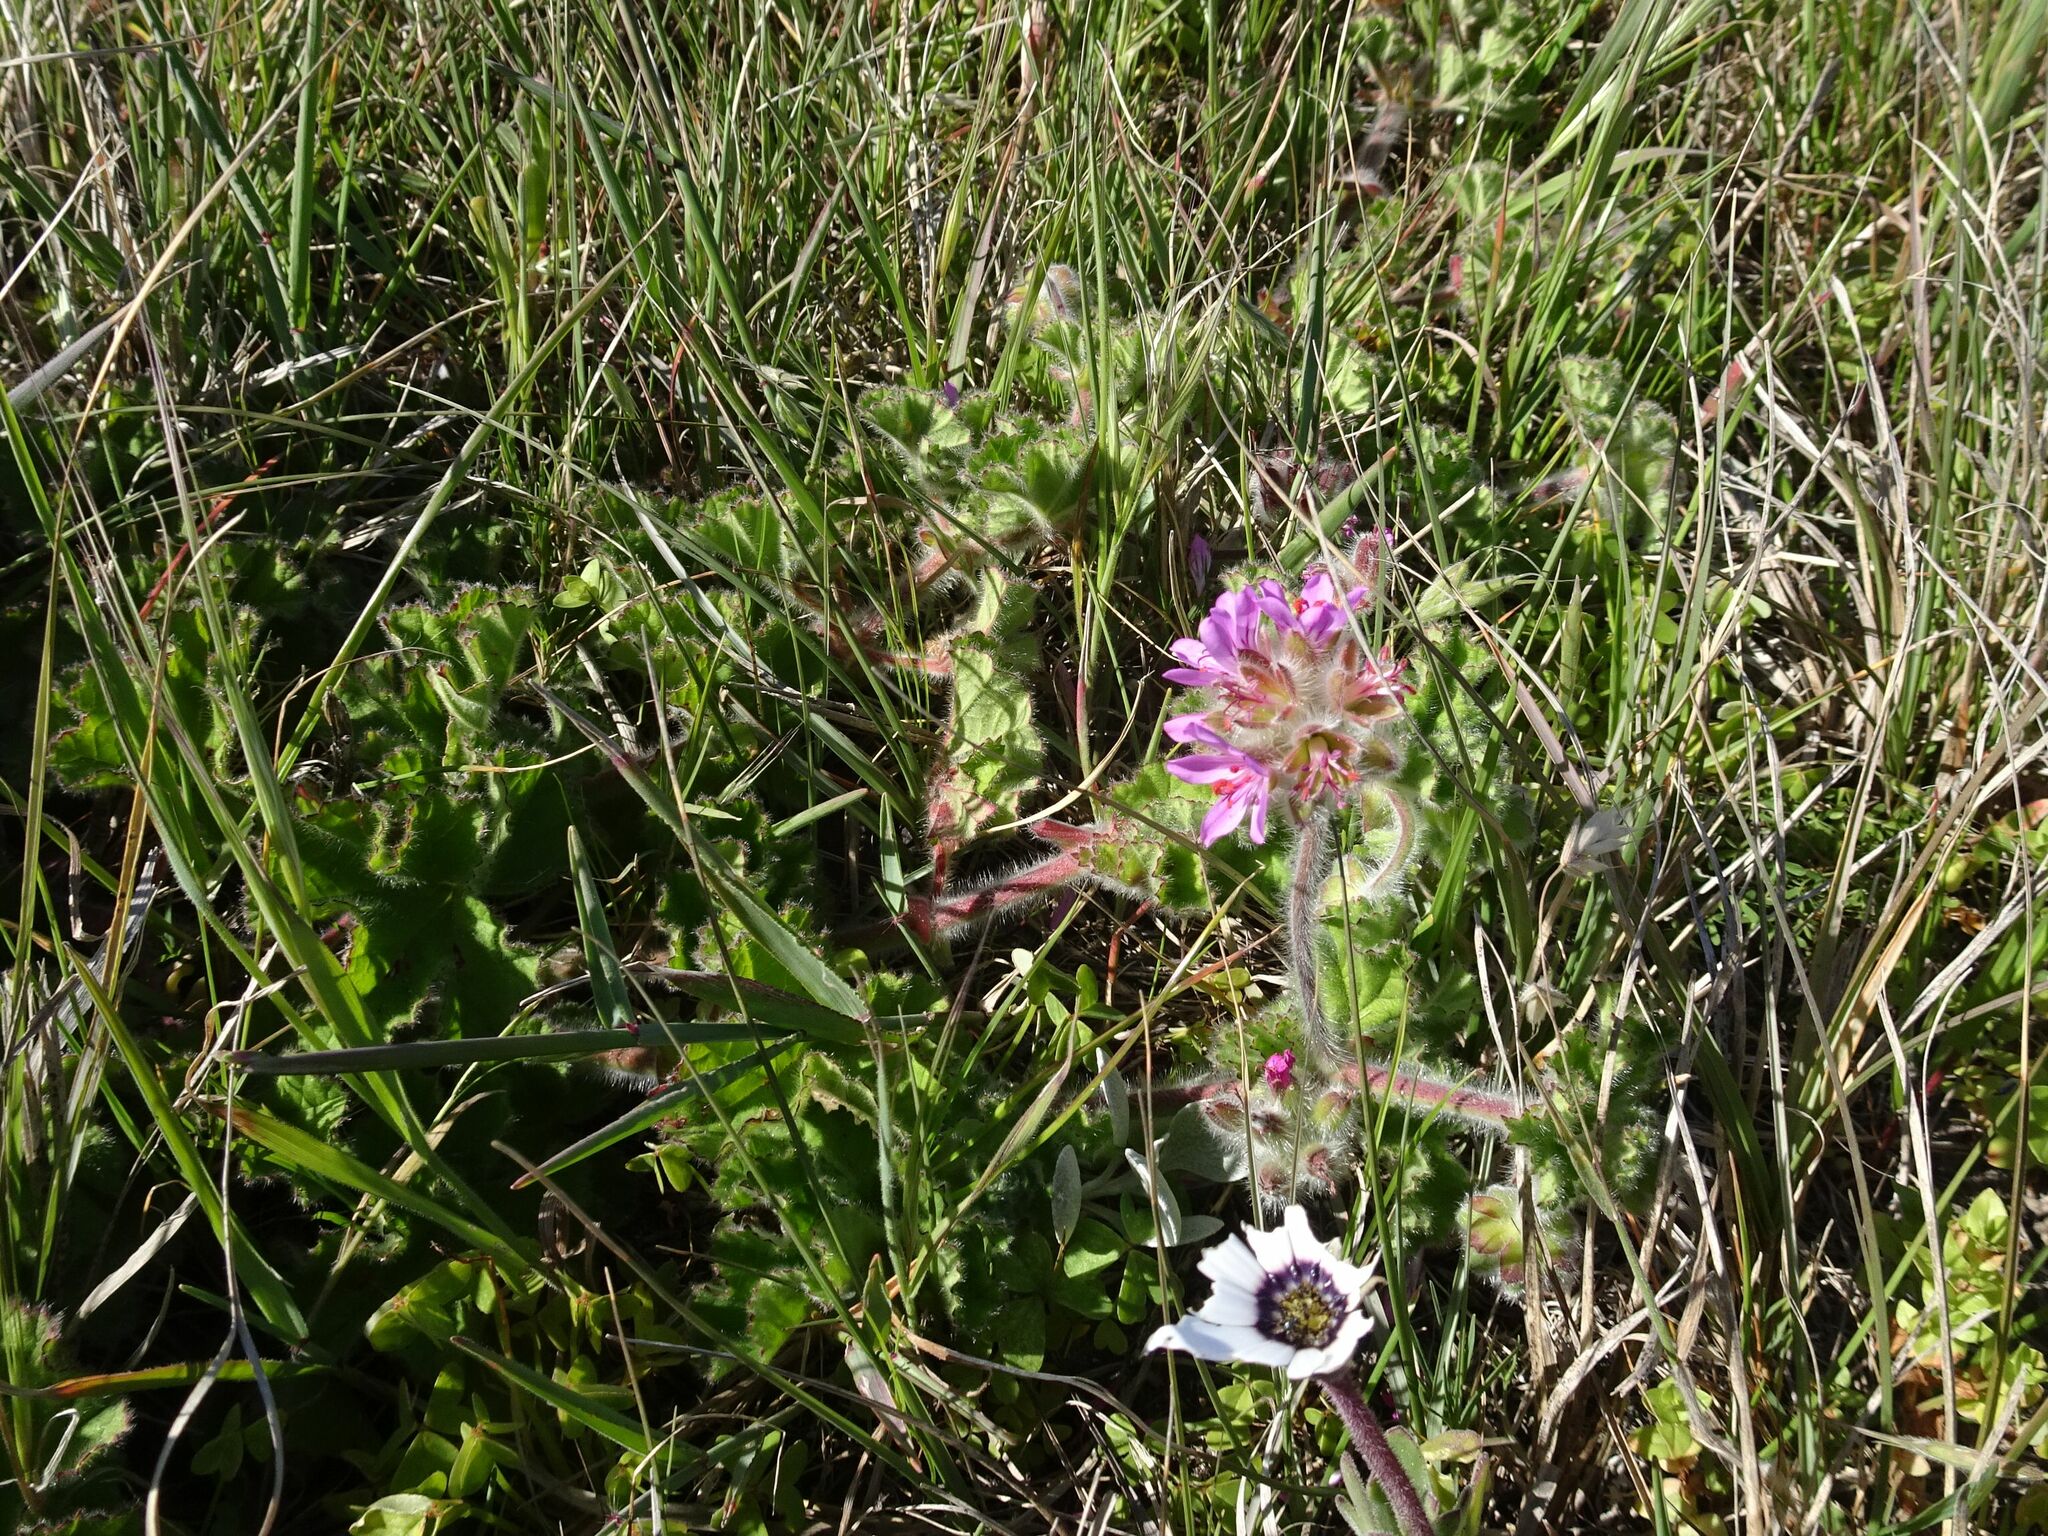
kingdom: Plantae
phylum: Tracheophyta
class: Magnoliopsida
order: Geraniales
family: Geraniaceae
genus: Pelargonium
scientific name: Pelargonium capitatum
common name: Rose scented geranium
